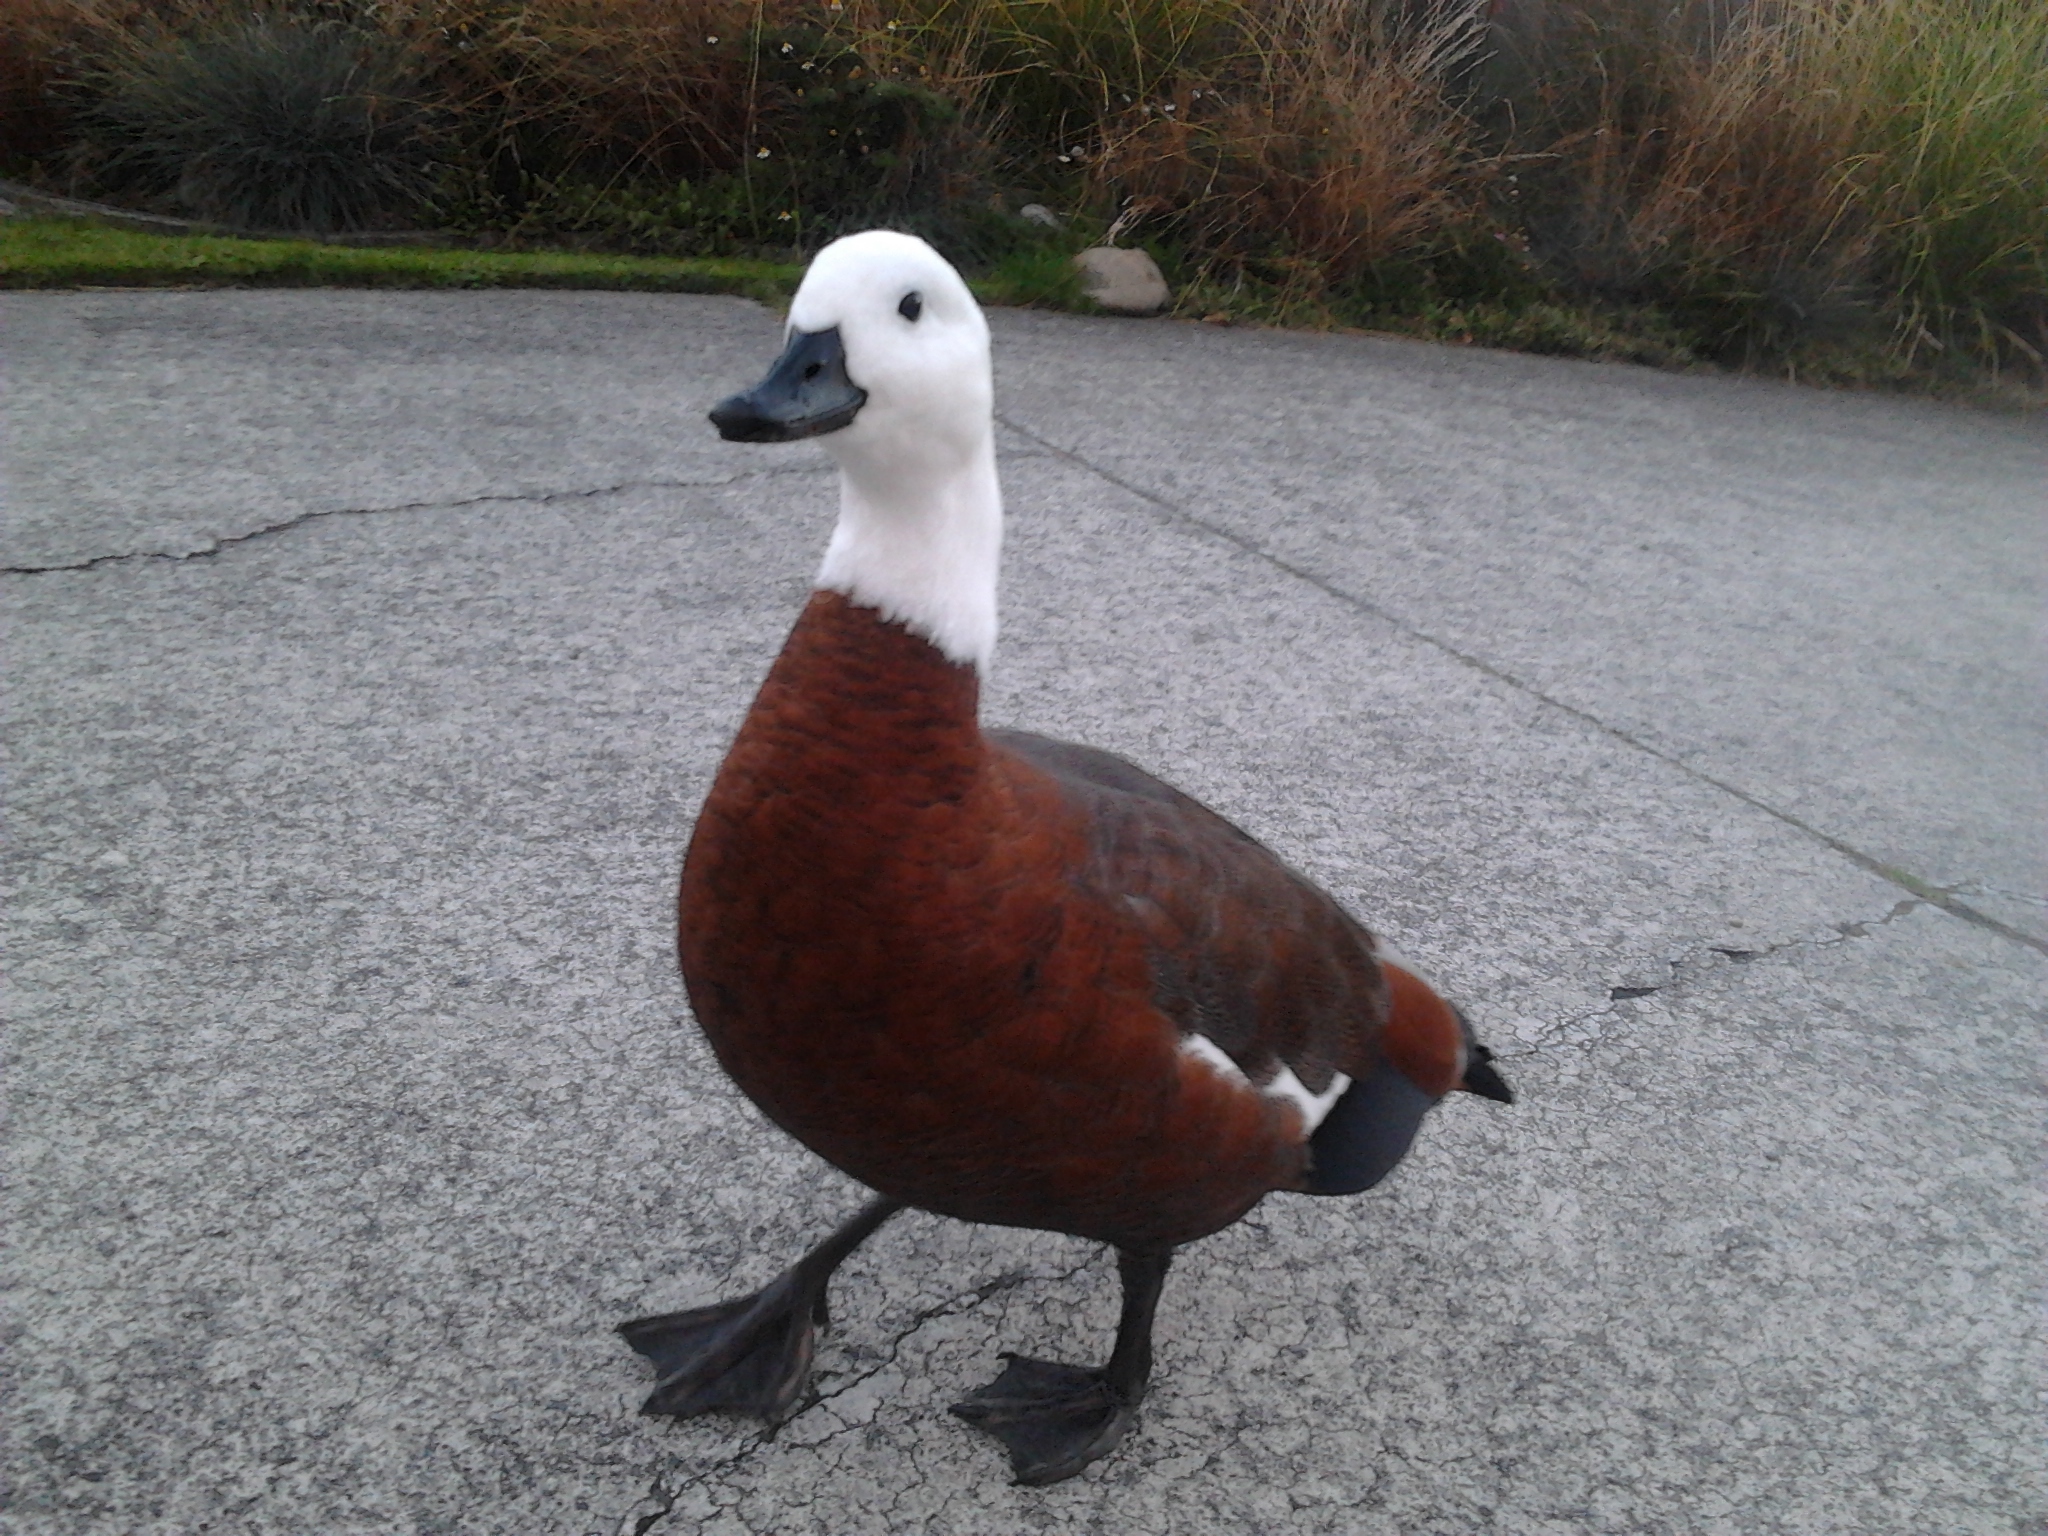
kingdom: Animalia
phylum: Chordata
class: Aves
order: Anseriformes
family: Anatidae
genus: Tadorna
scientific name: Tadorna variegata
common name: Paradise shelduck
